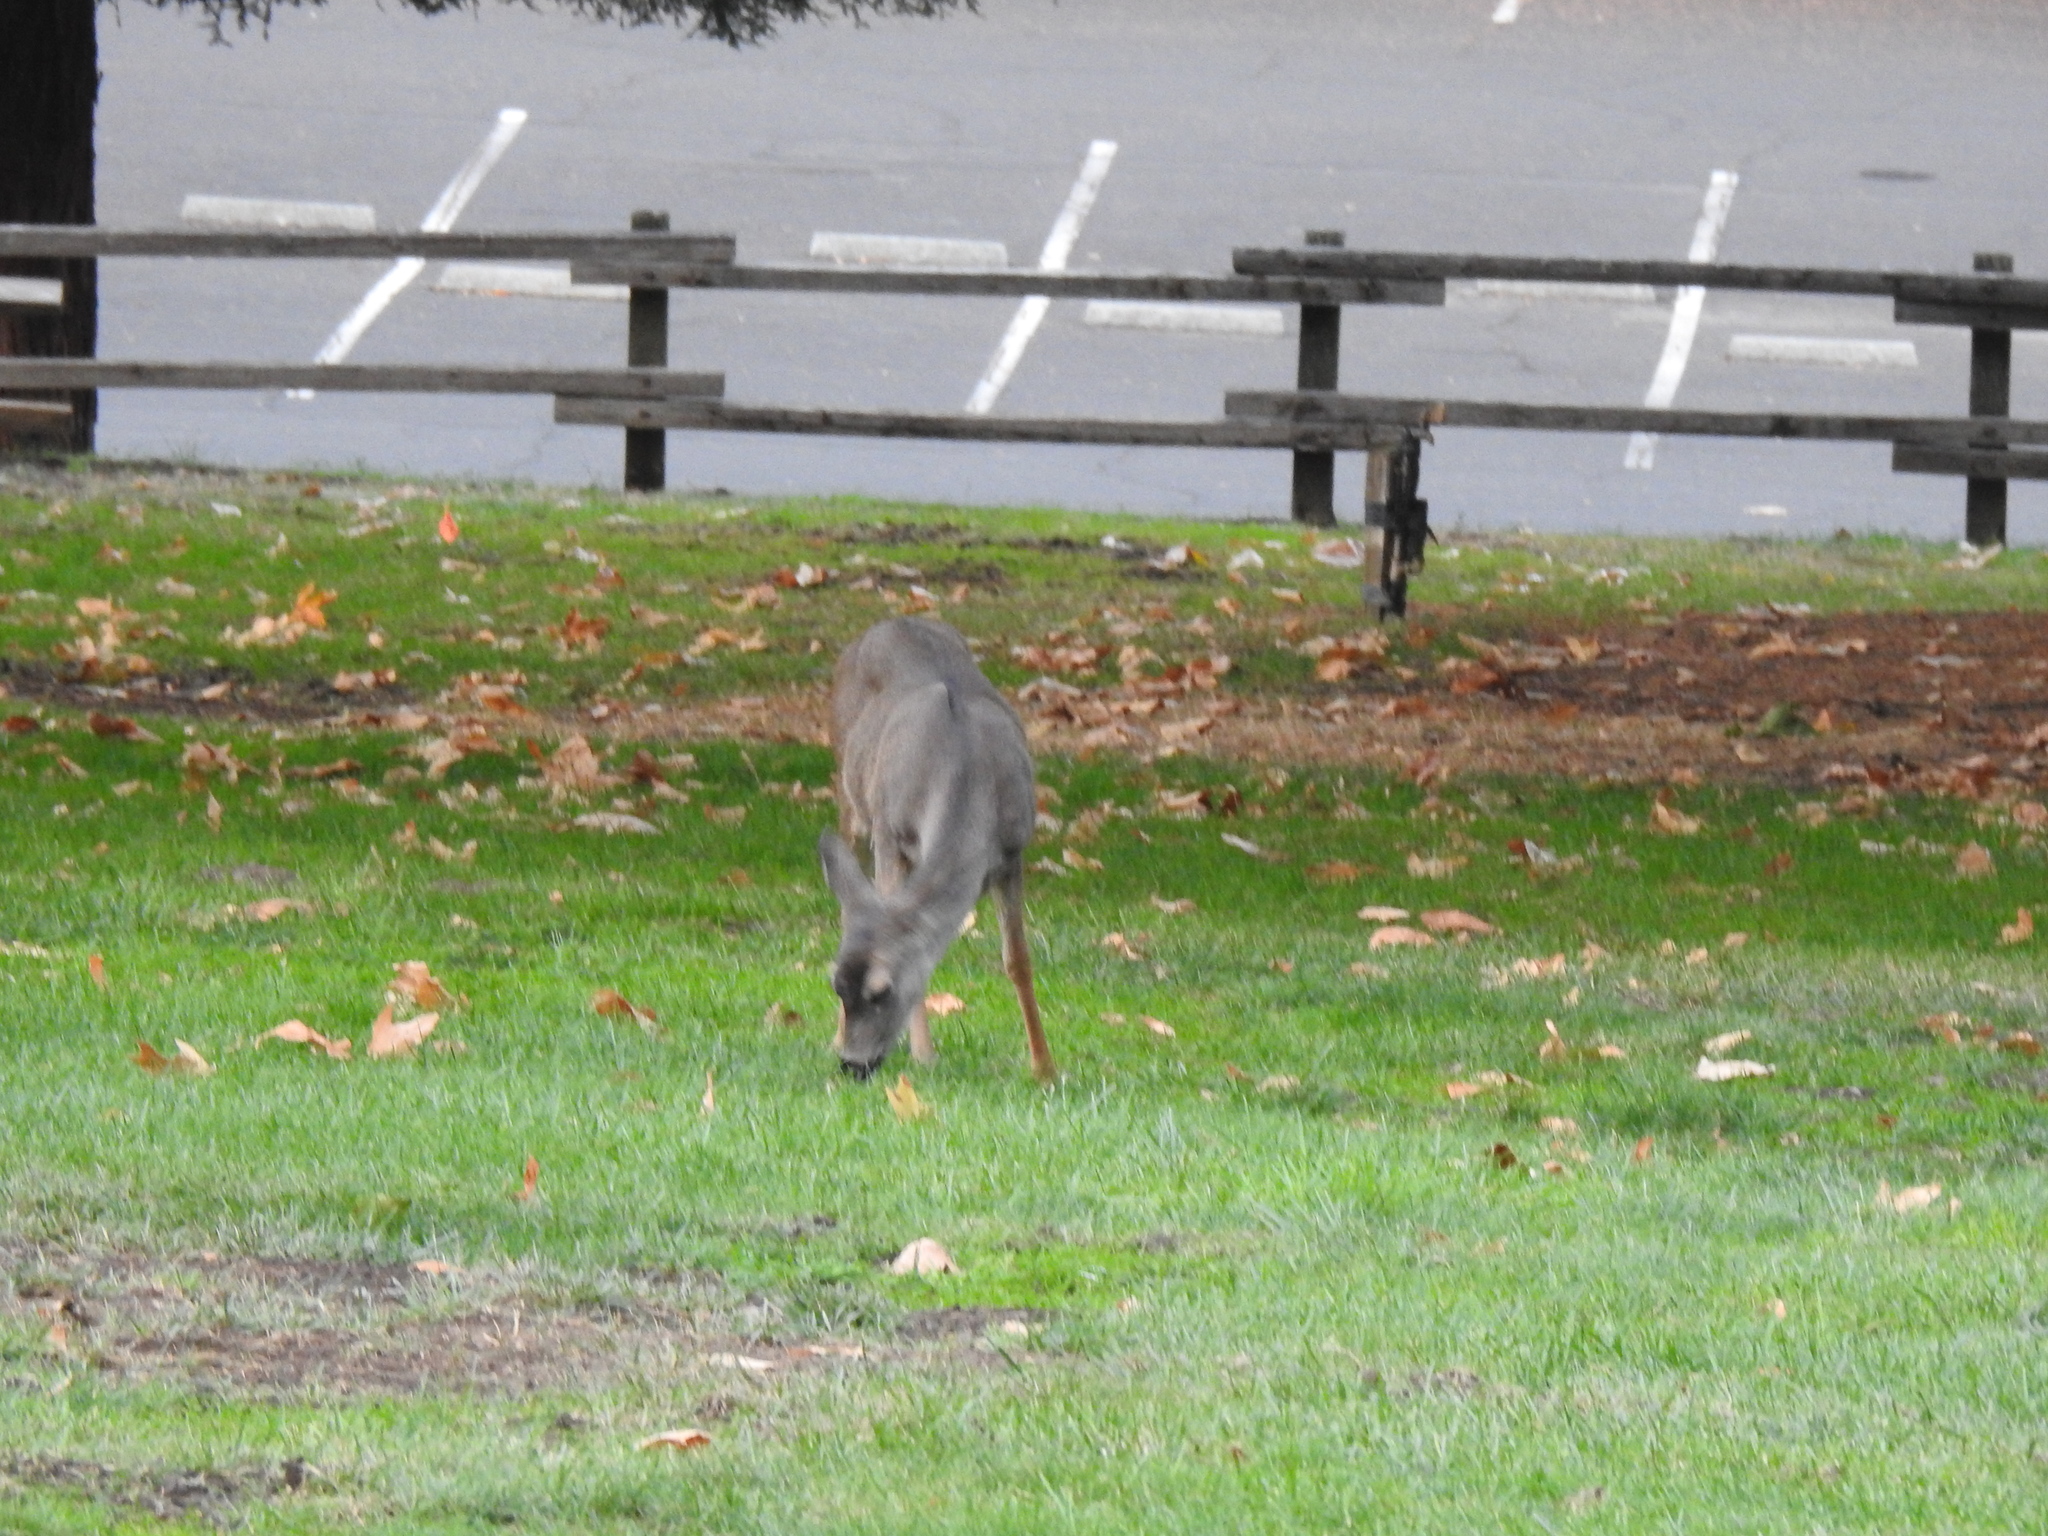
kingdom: Animalia
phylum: Chordata
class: Mammalia
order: Artiodactyla
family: Cervidae
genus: Odocoileus
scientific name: Odocoileus hemionus
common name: Mule deer
